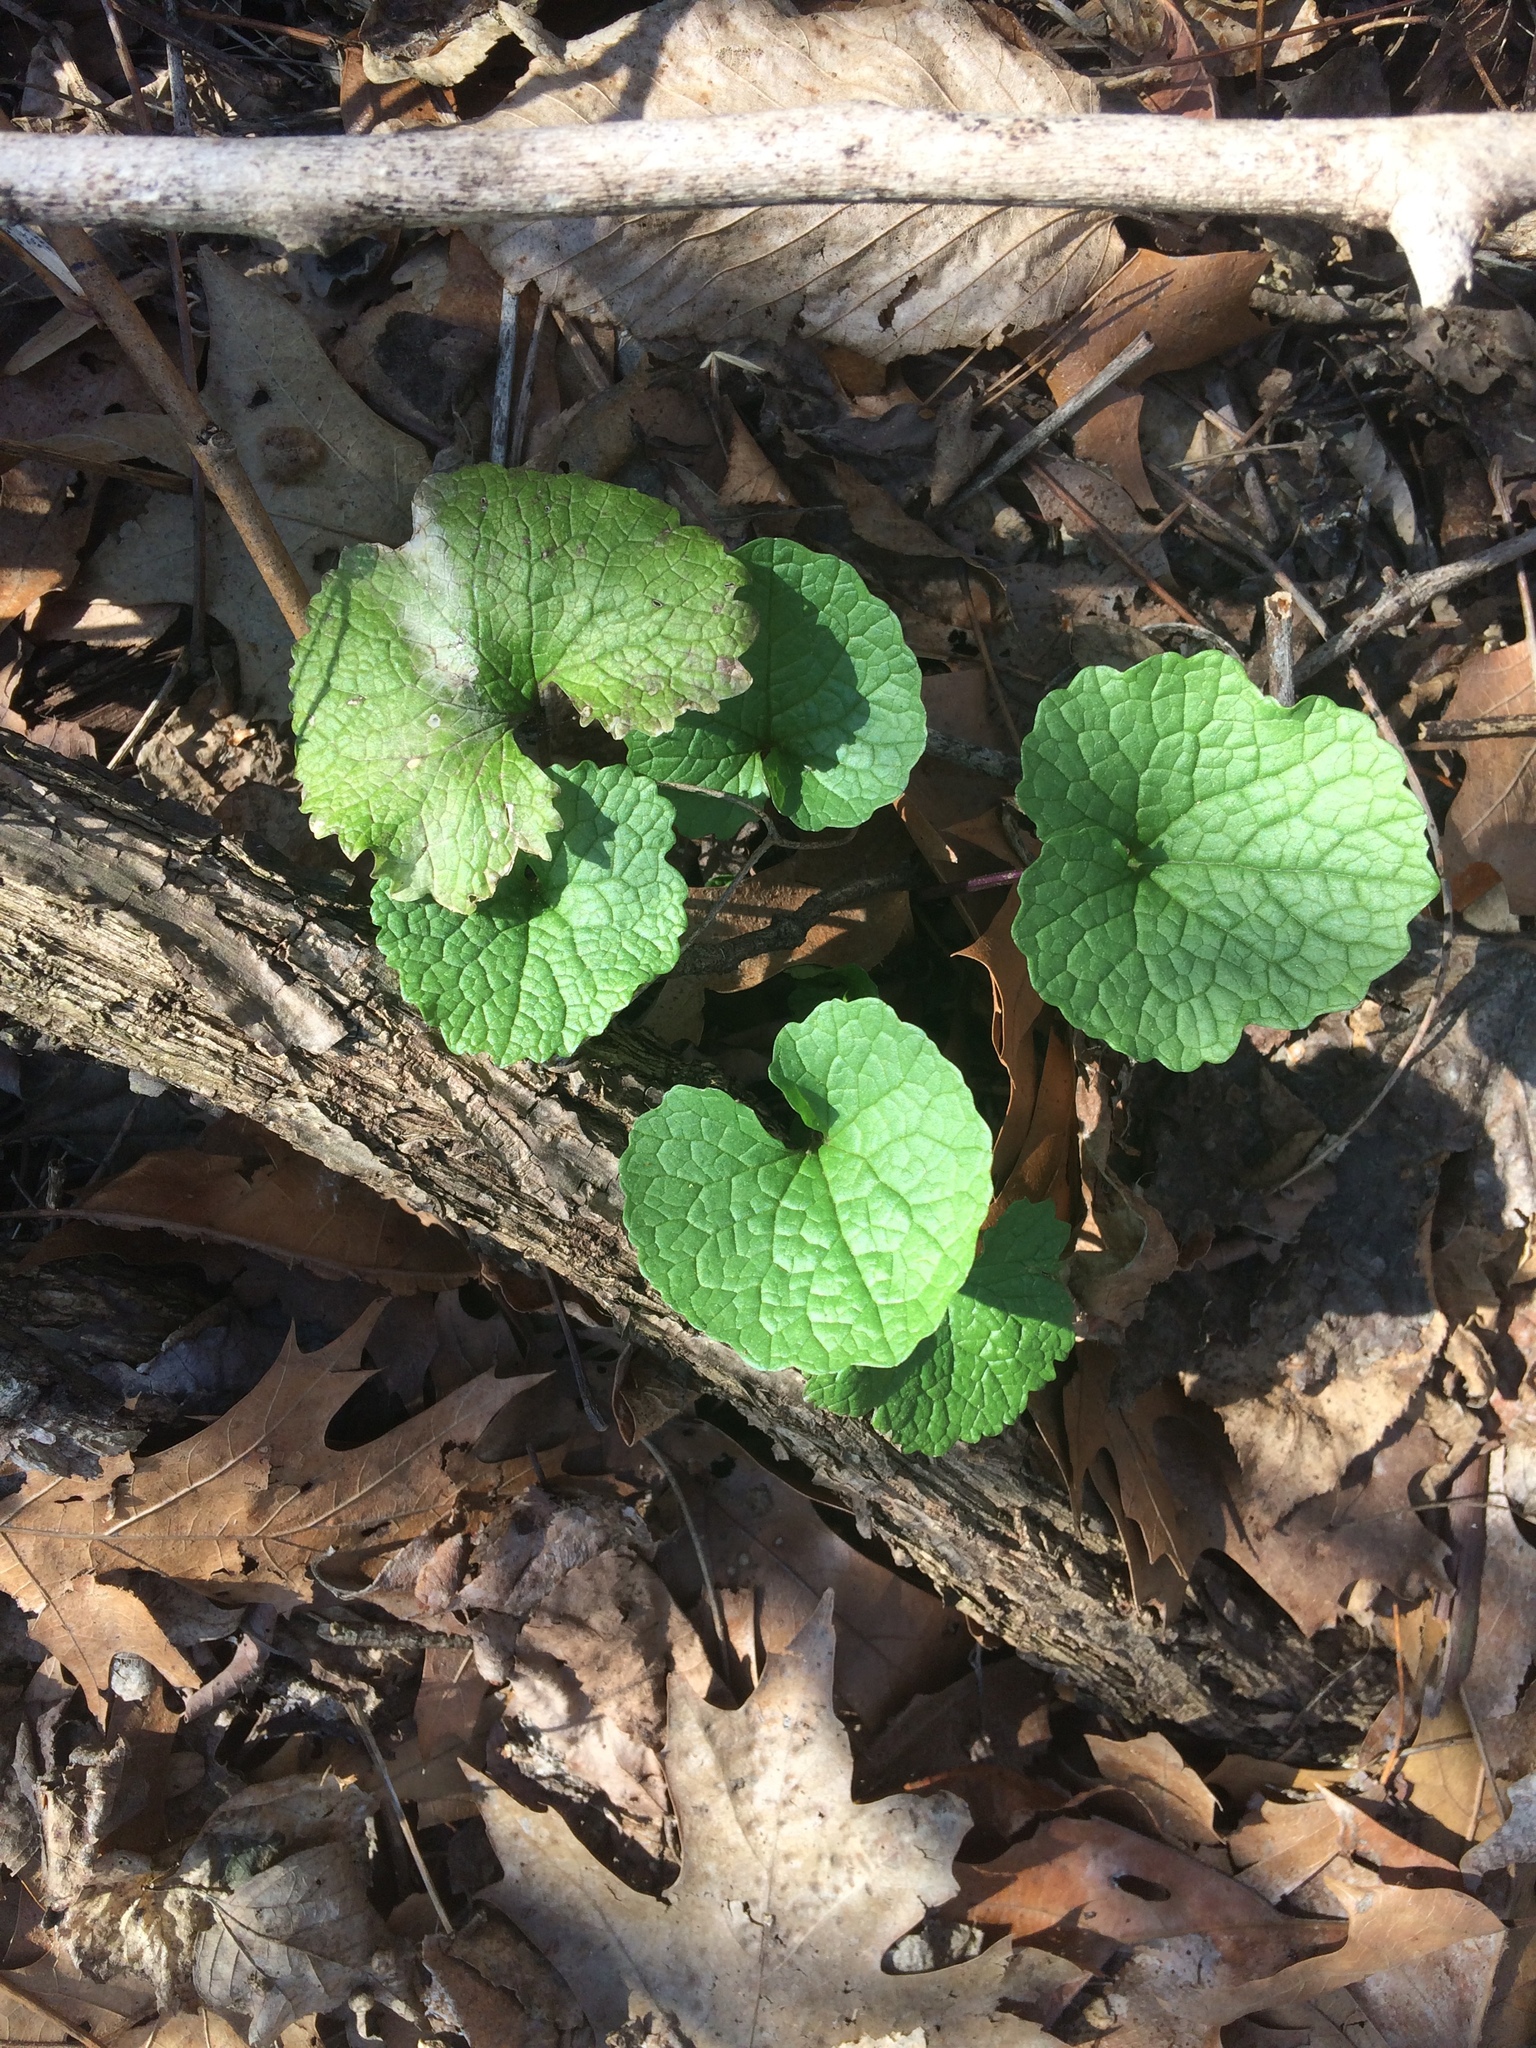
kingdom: Plantae
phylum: Tracheophyta
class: Magnoliopsida
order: Brassicales
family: Brassicaceae
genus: Alliaria
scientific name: Alliaria petiolata
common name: Garlic mustard
